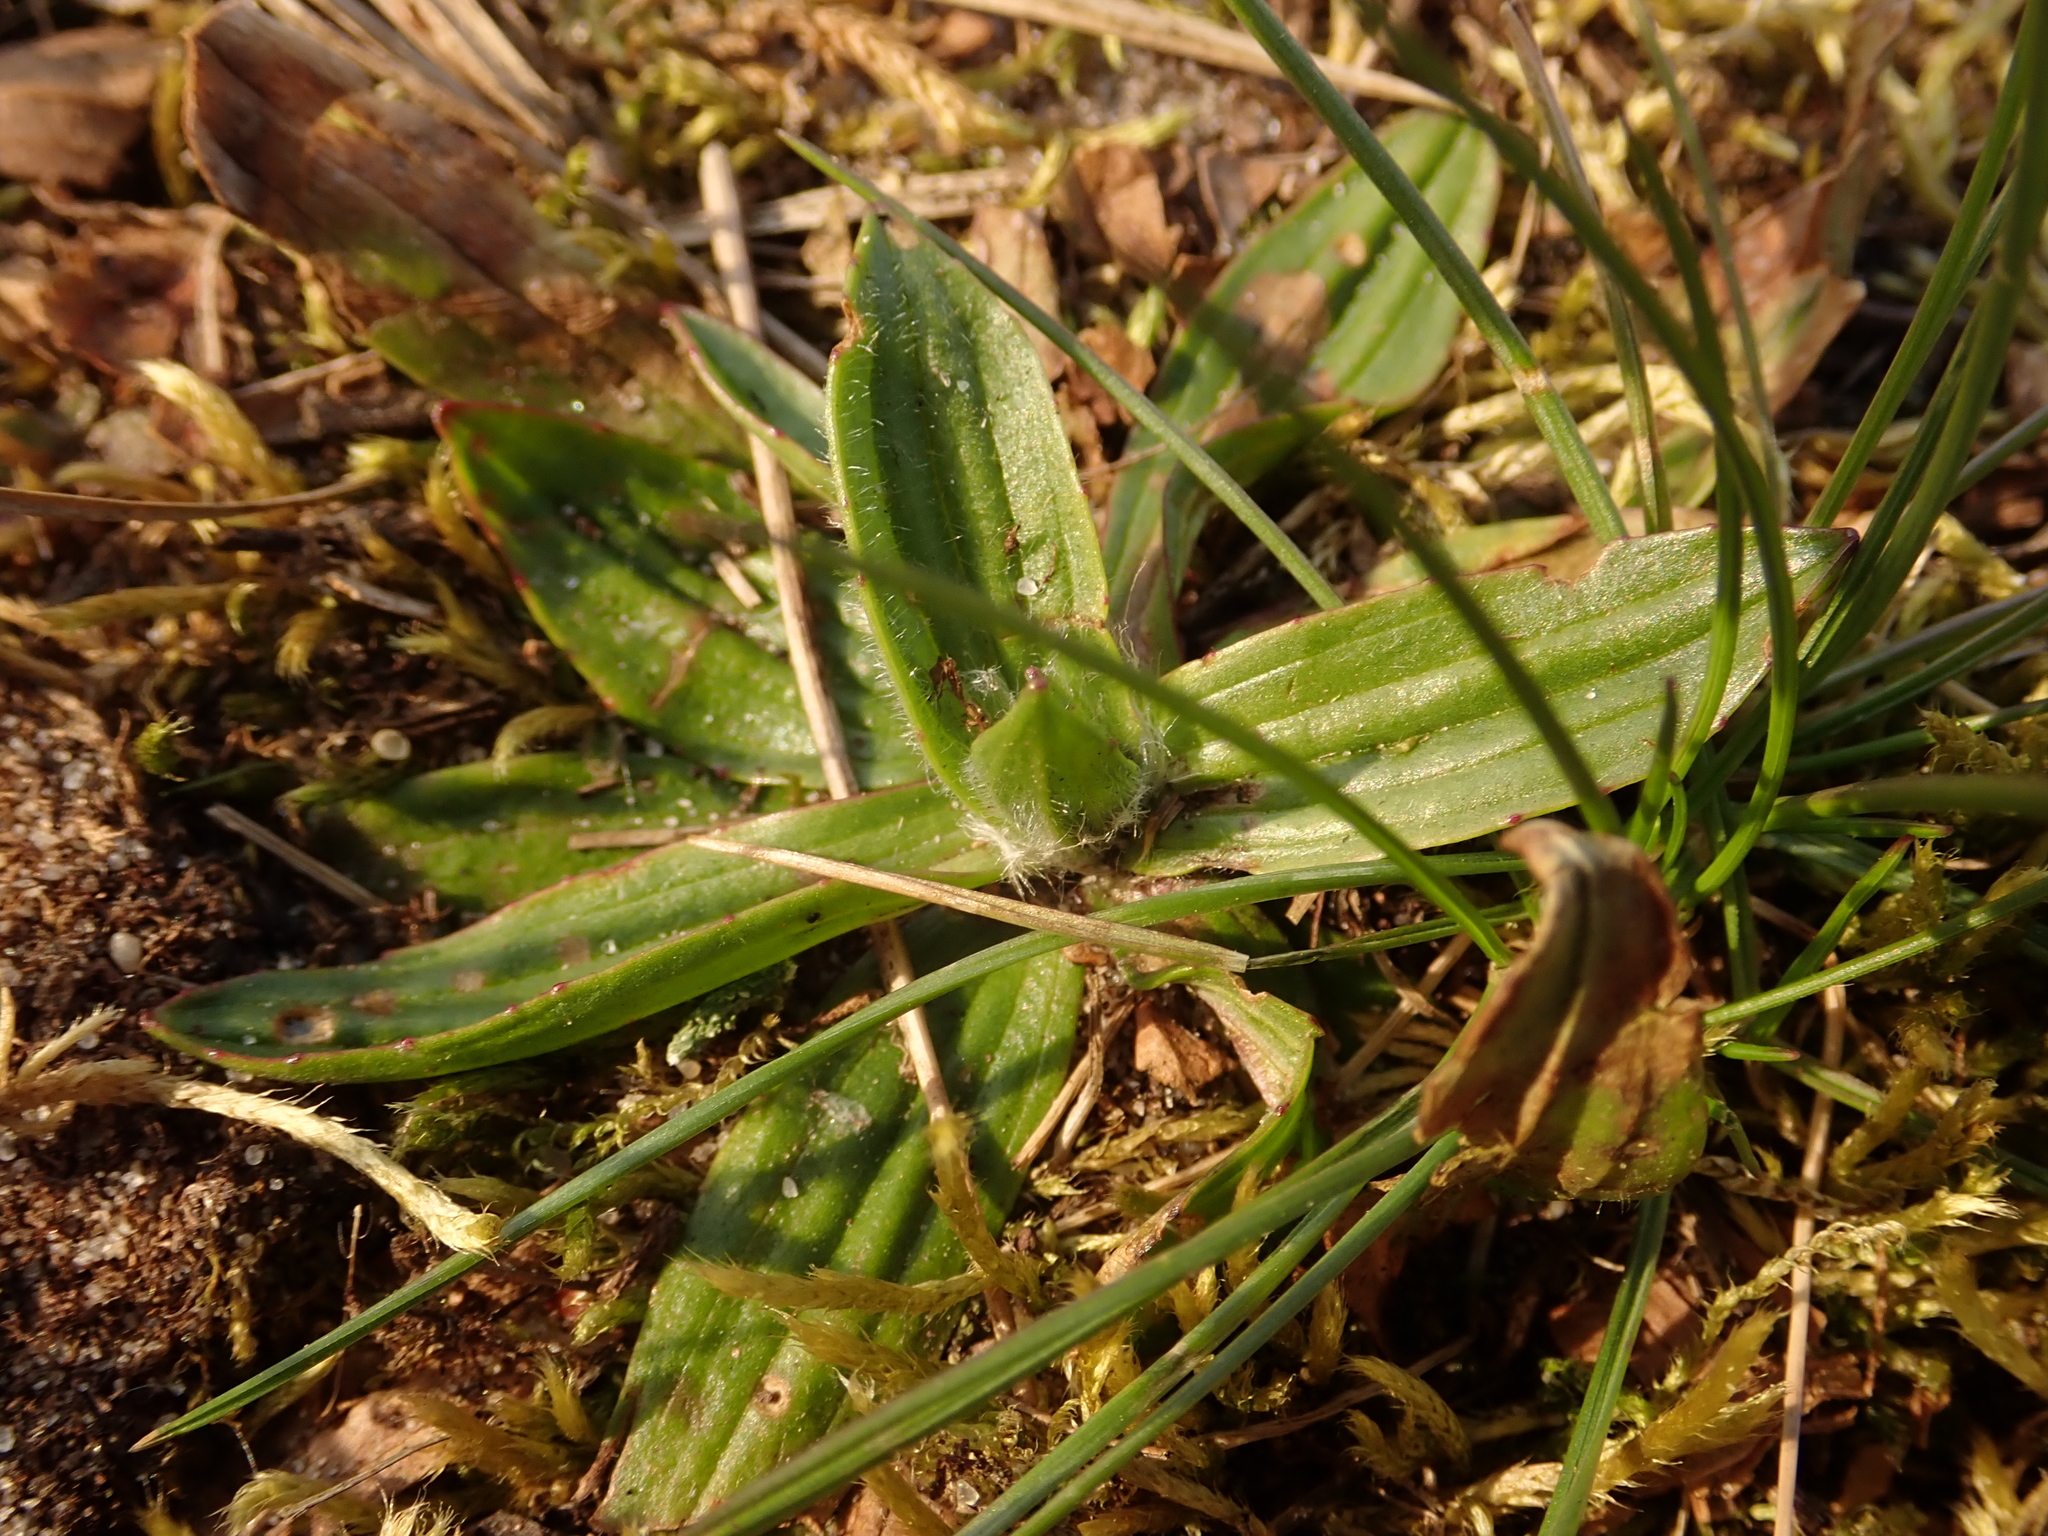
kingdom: Plantae
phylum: Tracheophyta
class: Magnoliopsida
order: Lamiales
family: Plantaginaceae
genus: Plantago
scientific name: Plantago lanceolata
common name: Ribwort plantain
